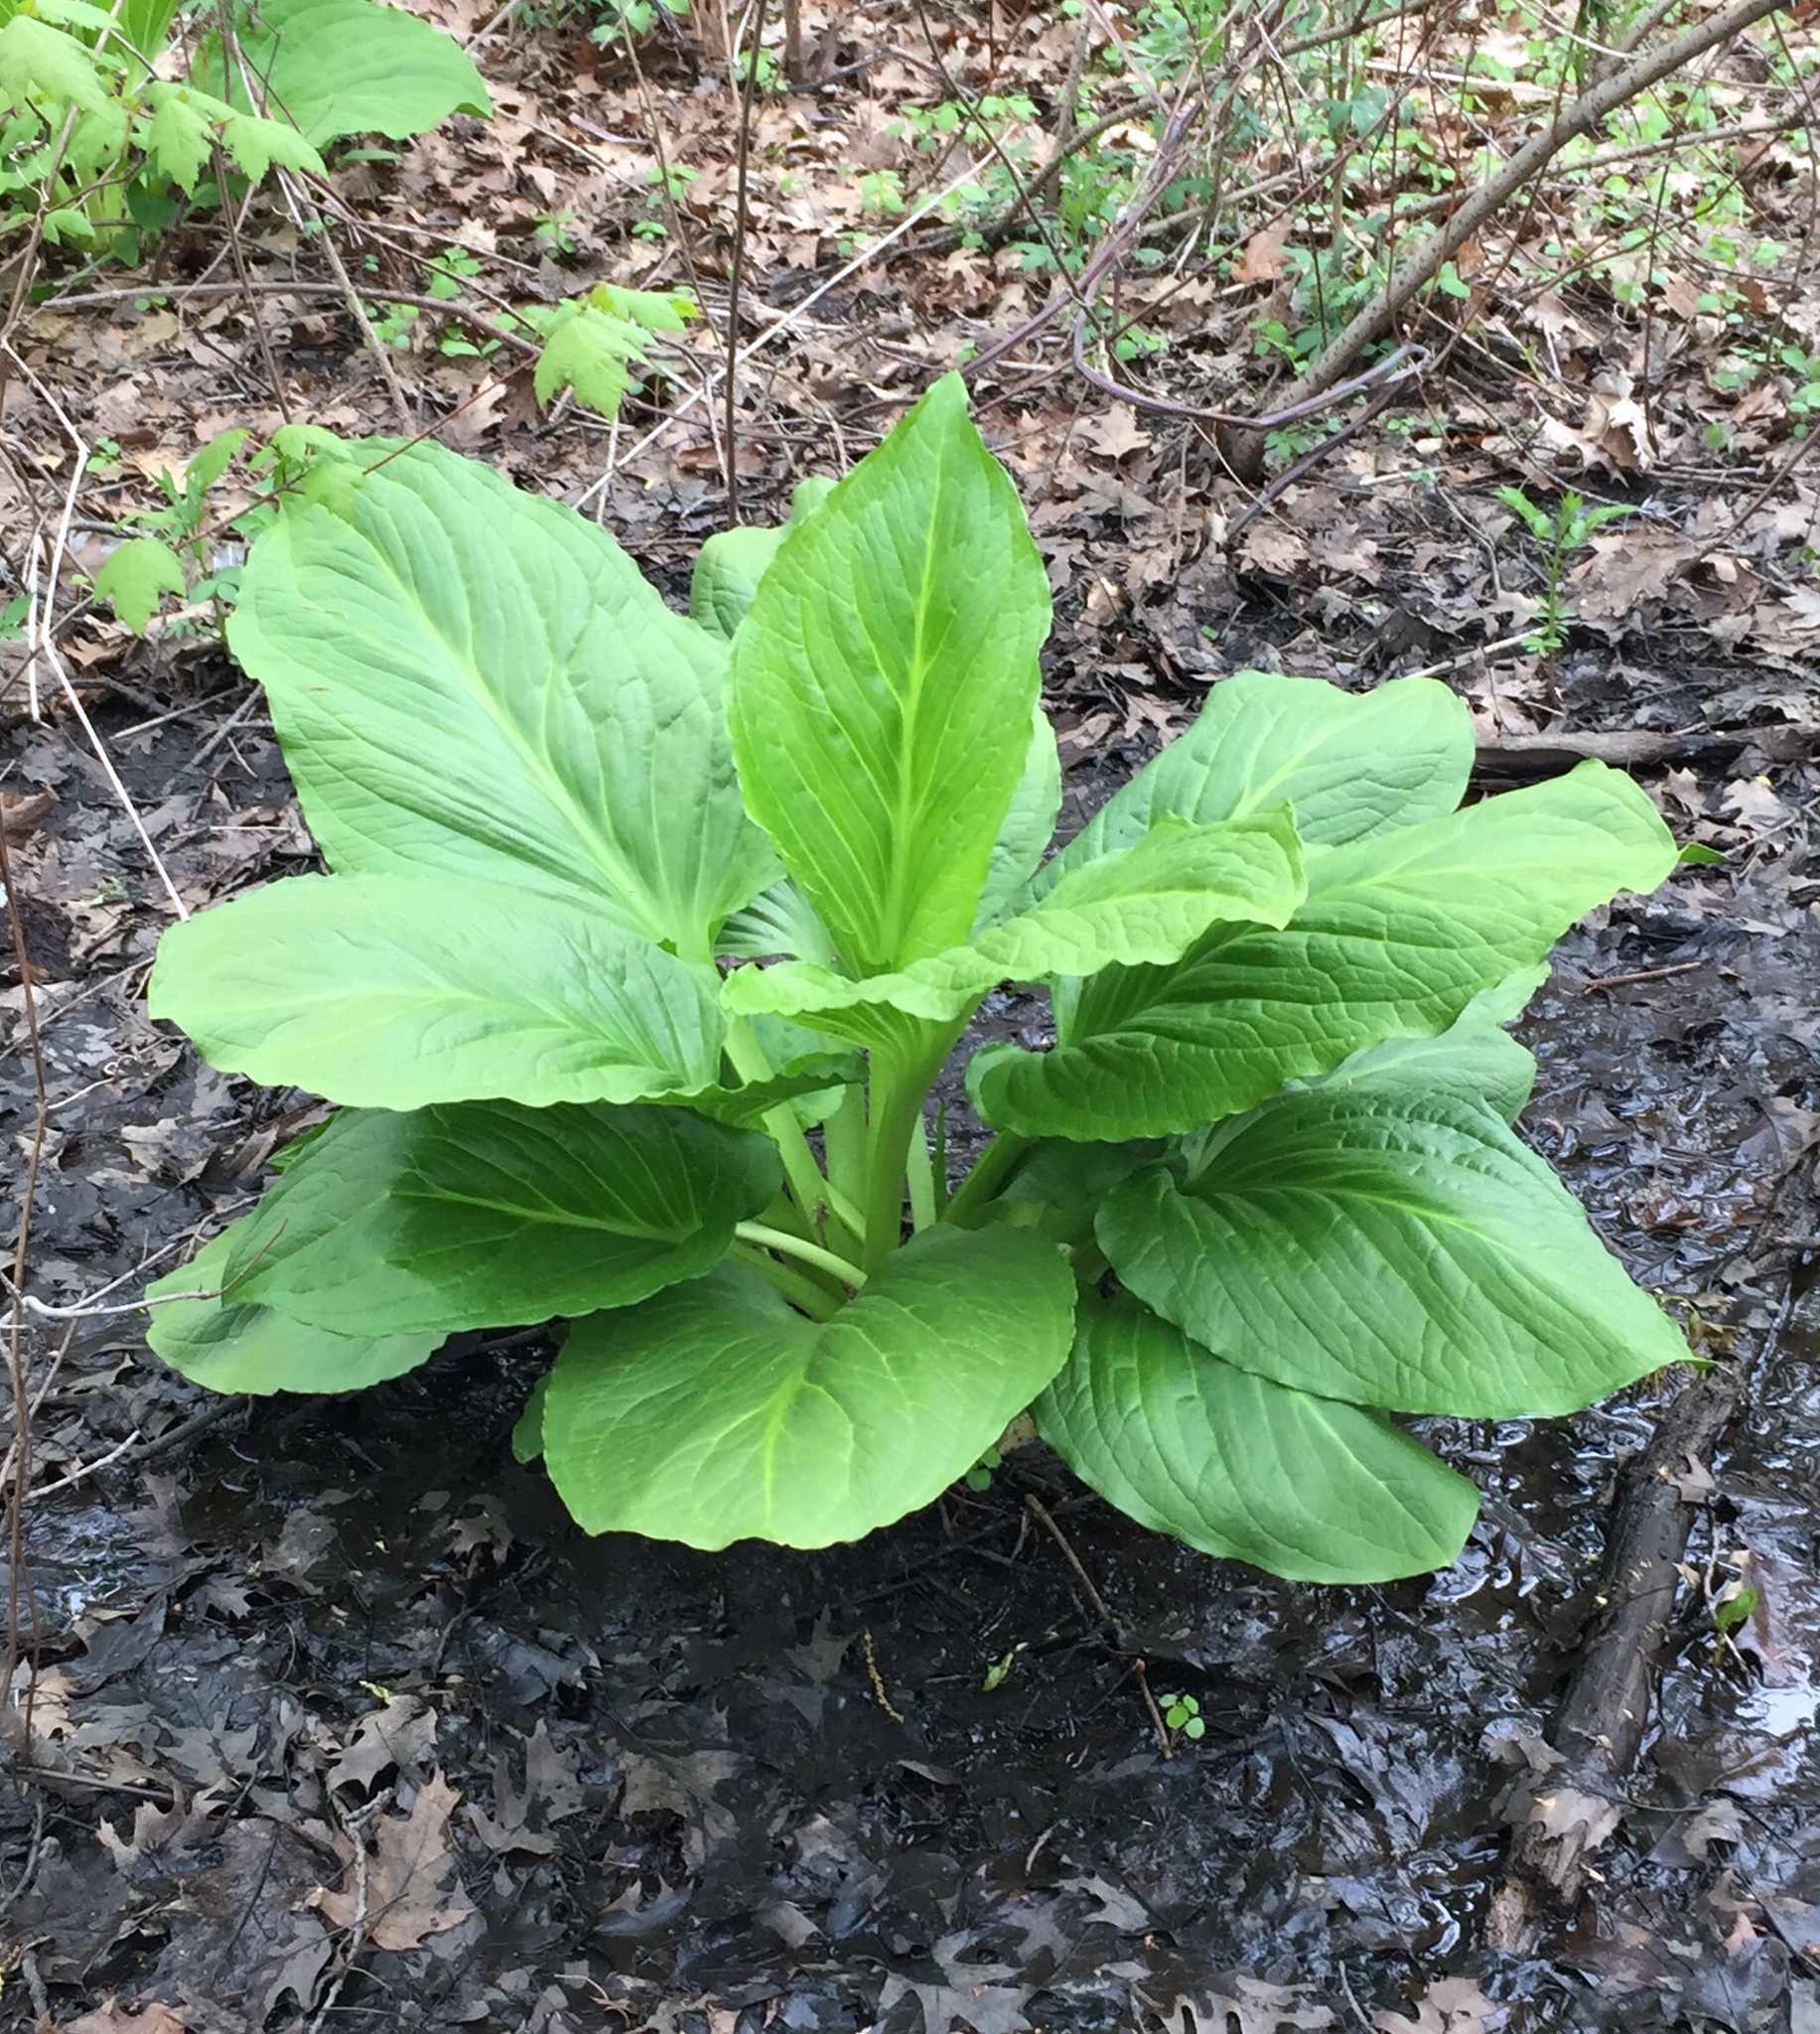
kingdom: Plantae
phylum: Tracheophyta
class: Liliopsida
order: Alismatales
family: Araceae
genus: Symplocarpus
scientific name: Symplocarpus foetidus
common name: Eastern skunk cabbage
